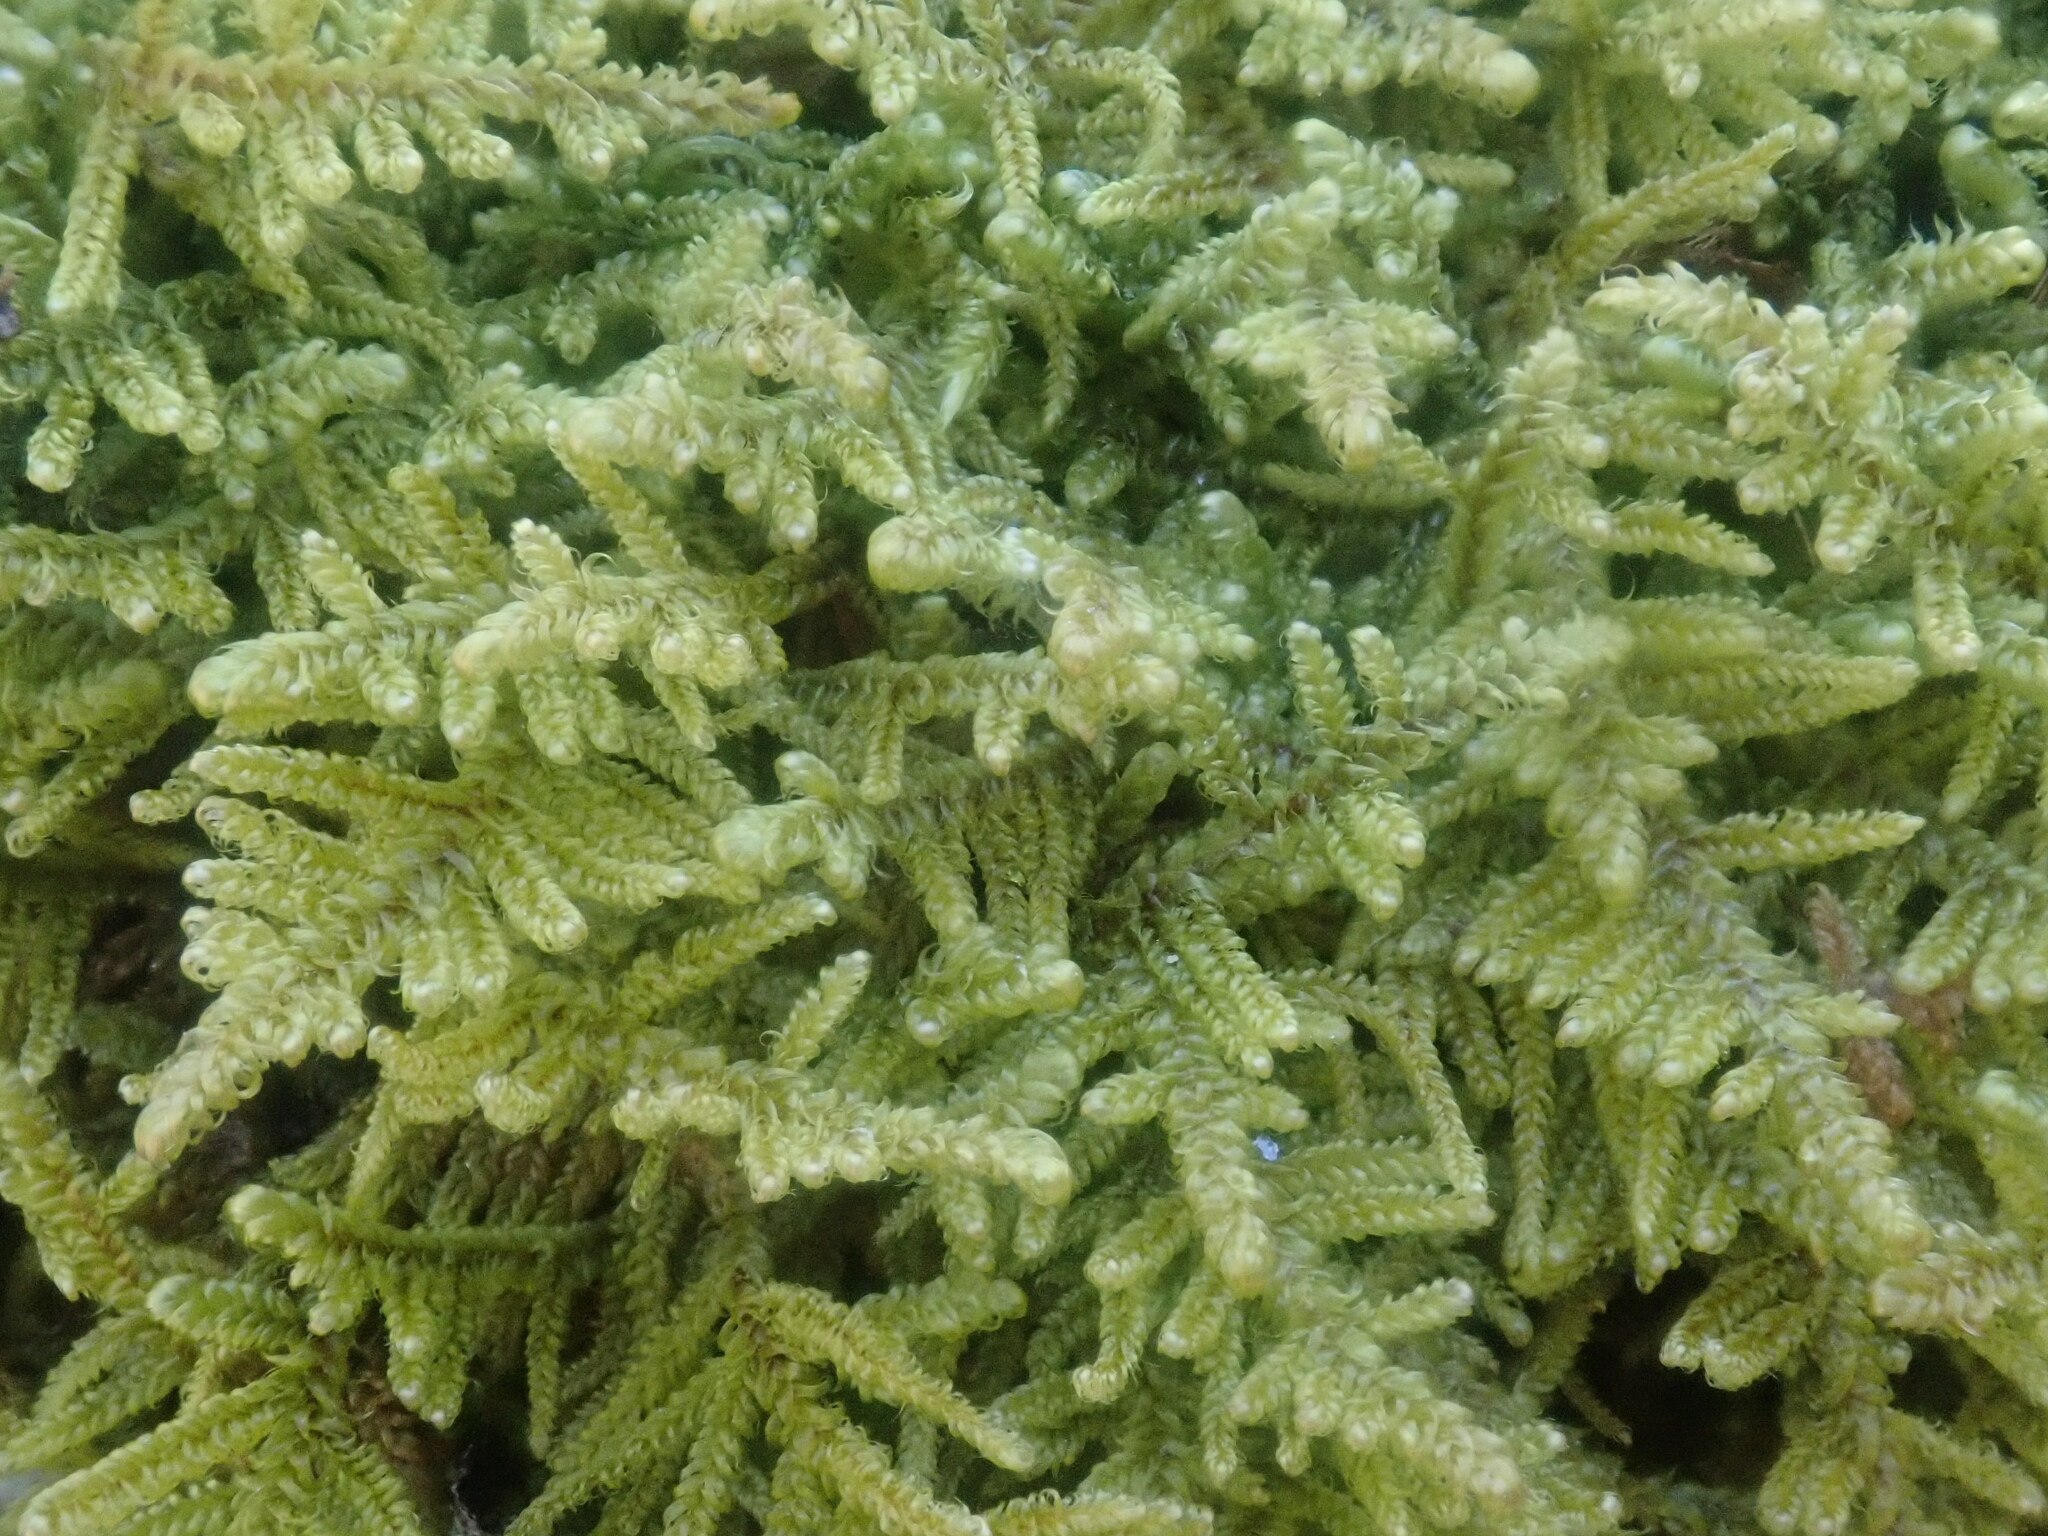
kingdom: Plantae
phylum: Bryophyta
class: Bryopsida
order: Hypnales
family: Callicladiaceae
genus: Callicladium
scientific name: Callicladium imponens
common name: Brocade moss
